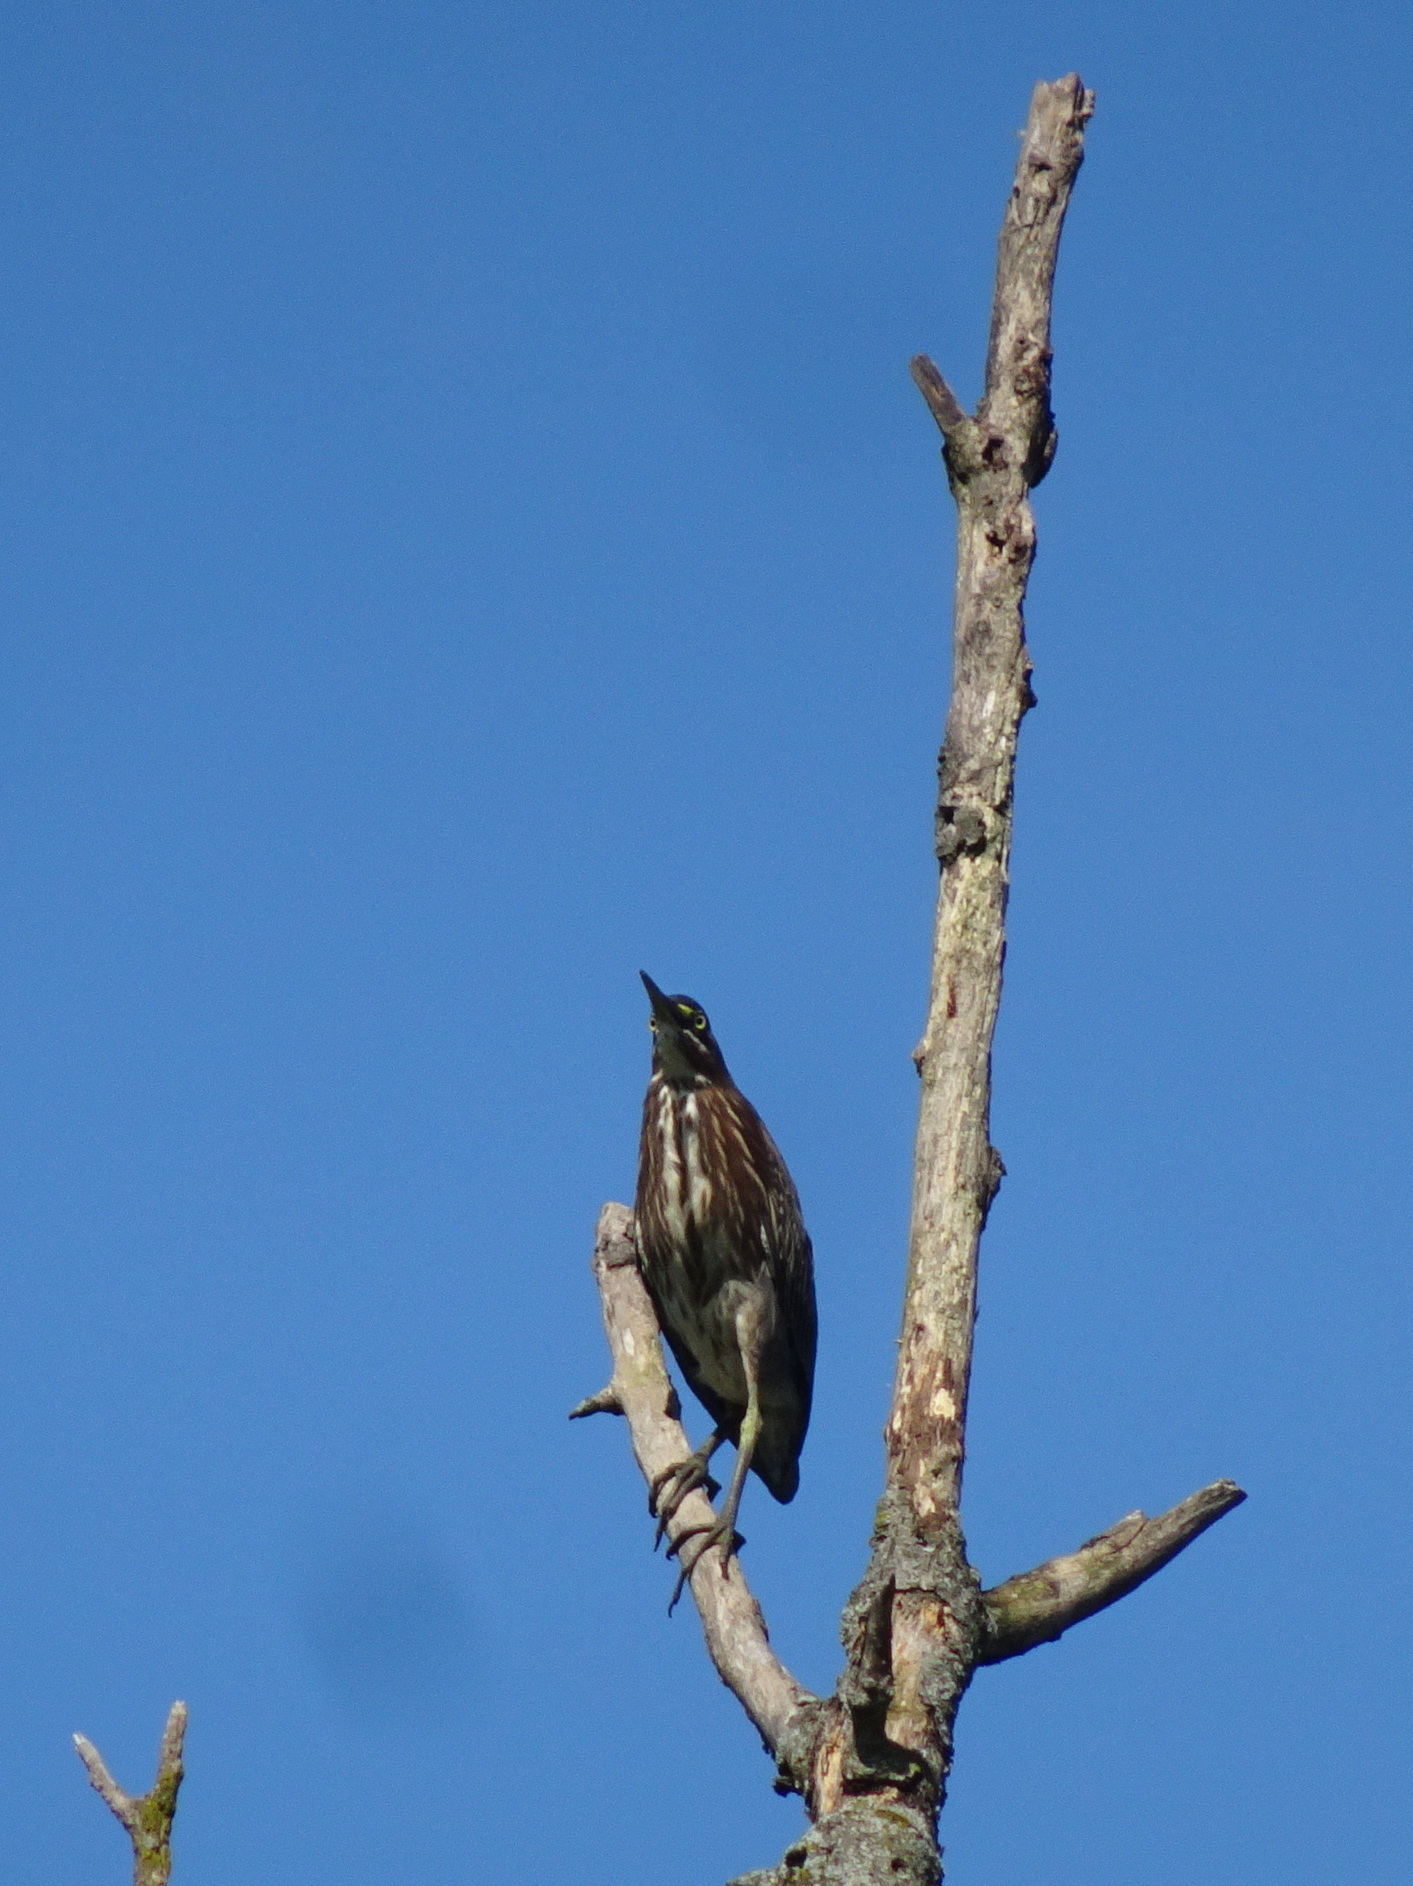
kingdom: Animalia
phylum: Chordata
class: Aves
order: Pelecaniformes
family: Ardeidae
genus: Butorides
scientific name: Butorides virescens
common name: Green heron
